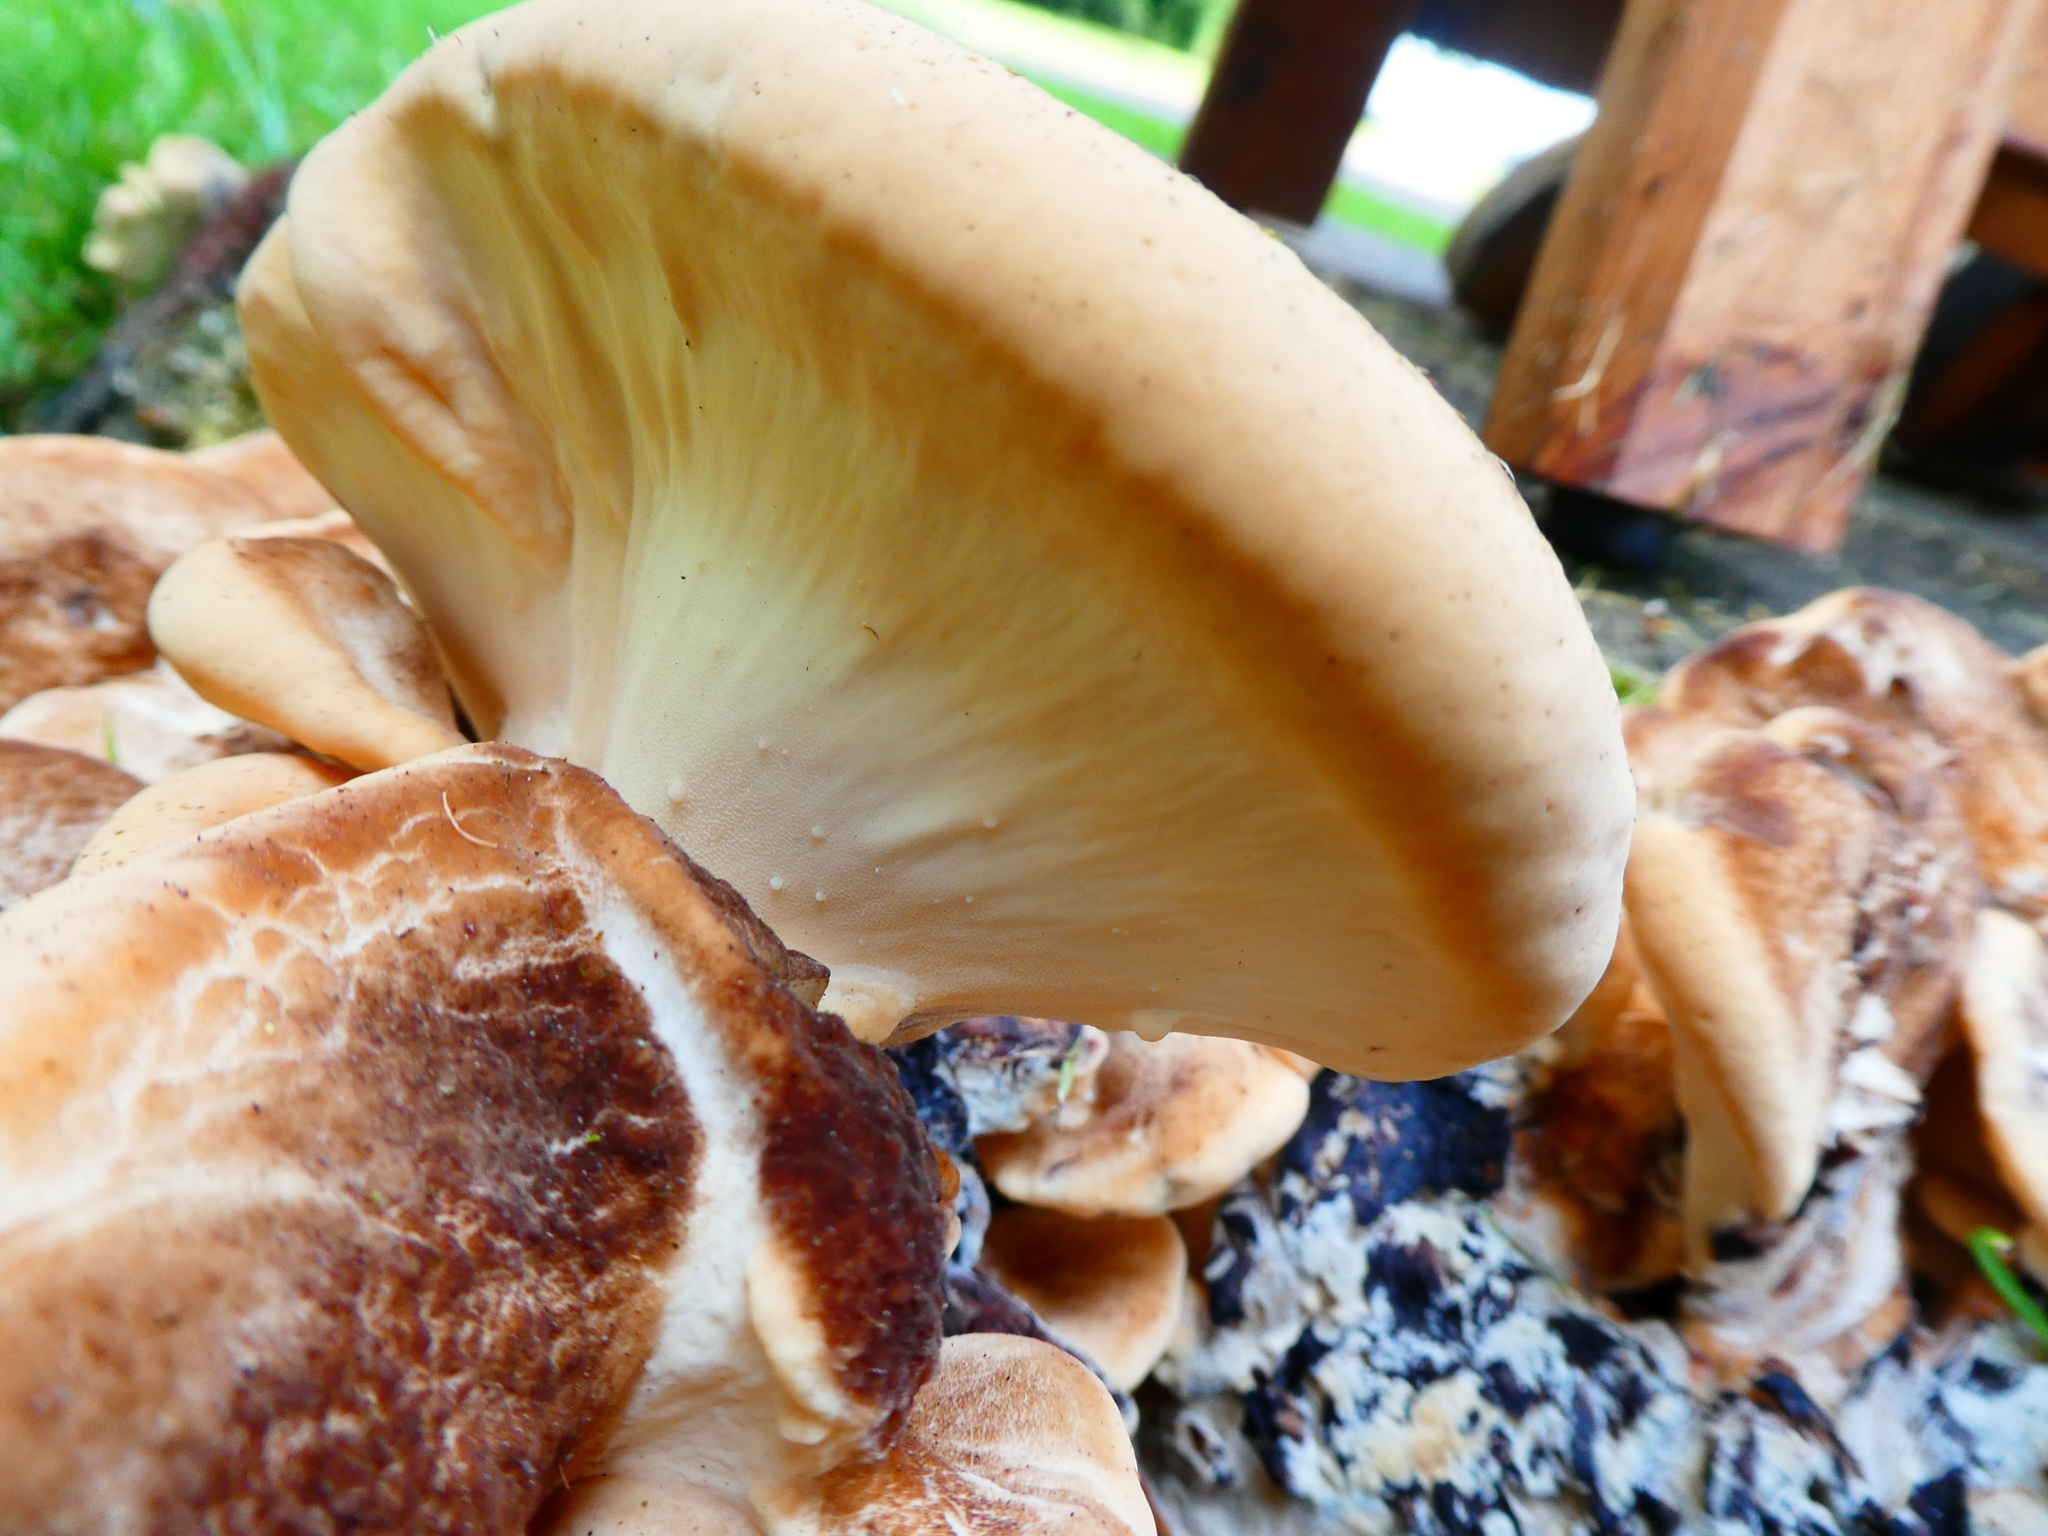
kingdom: Fungi
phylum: Basidiomycota
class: Agaricomycetes
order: Polyporales
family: Meripilaceae
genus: Meripilus
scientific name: Meripilus giganteus
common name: Giant polypore
